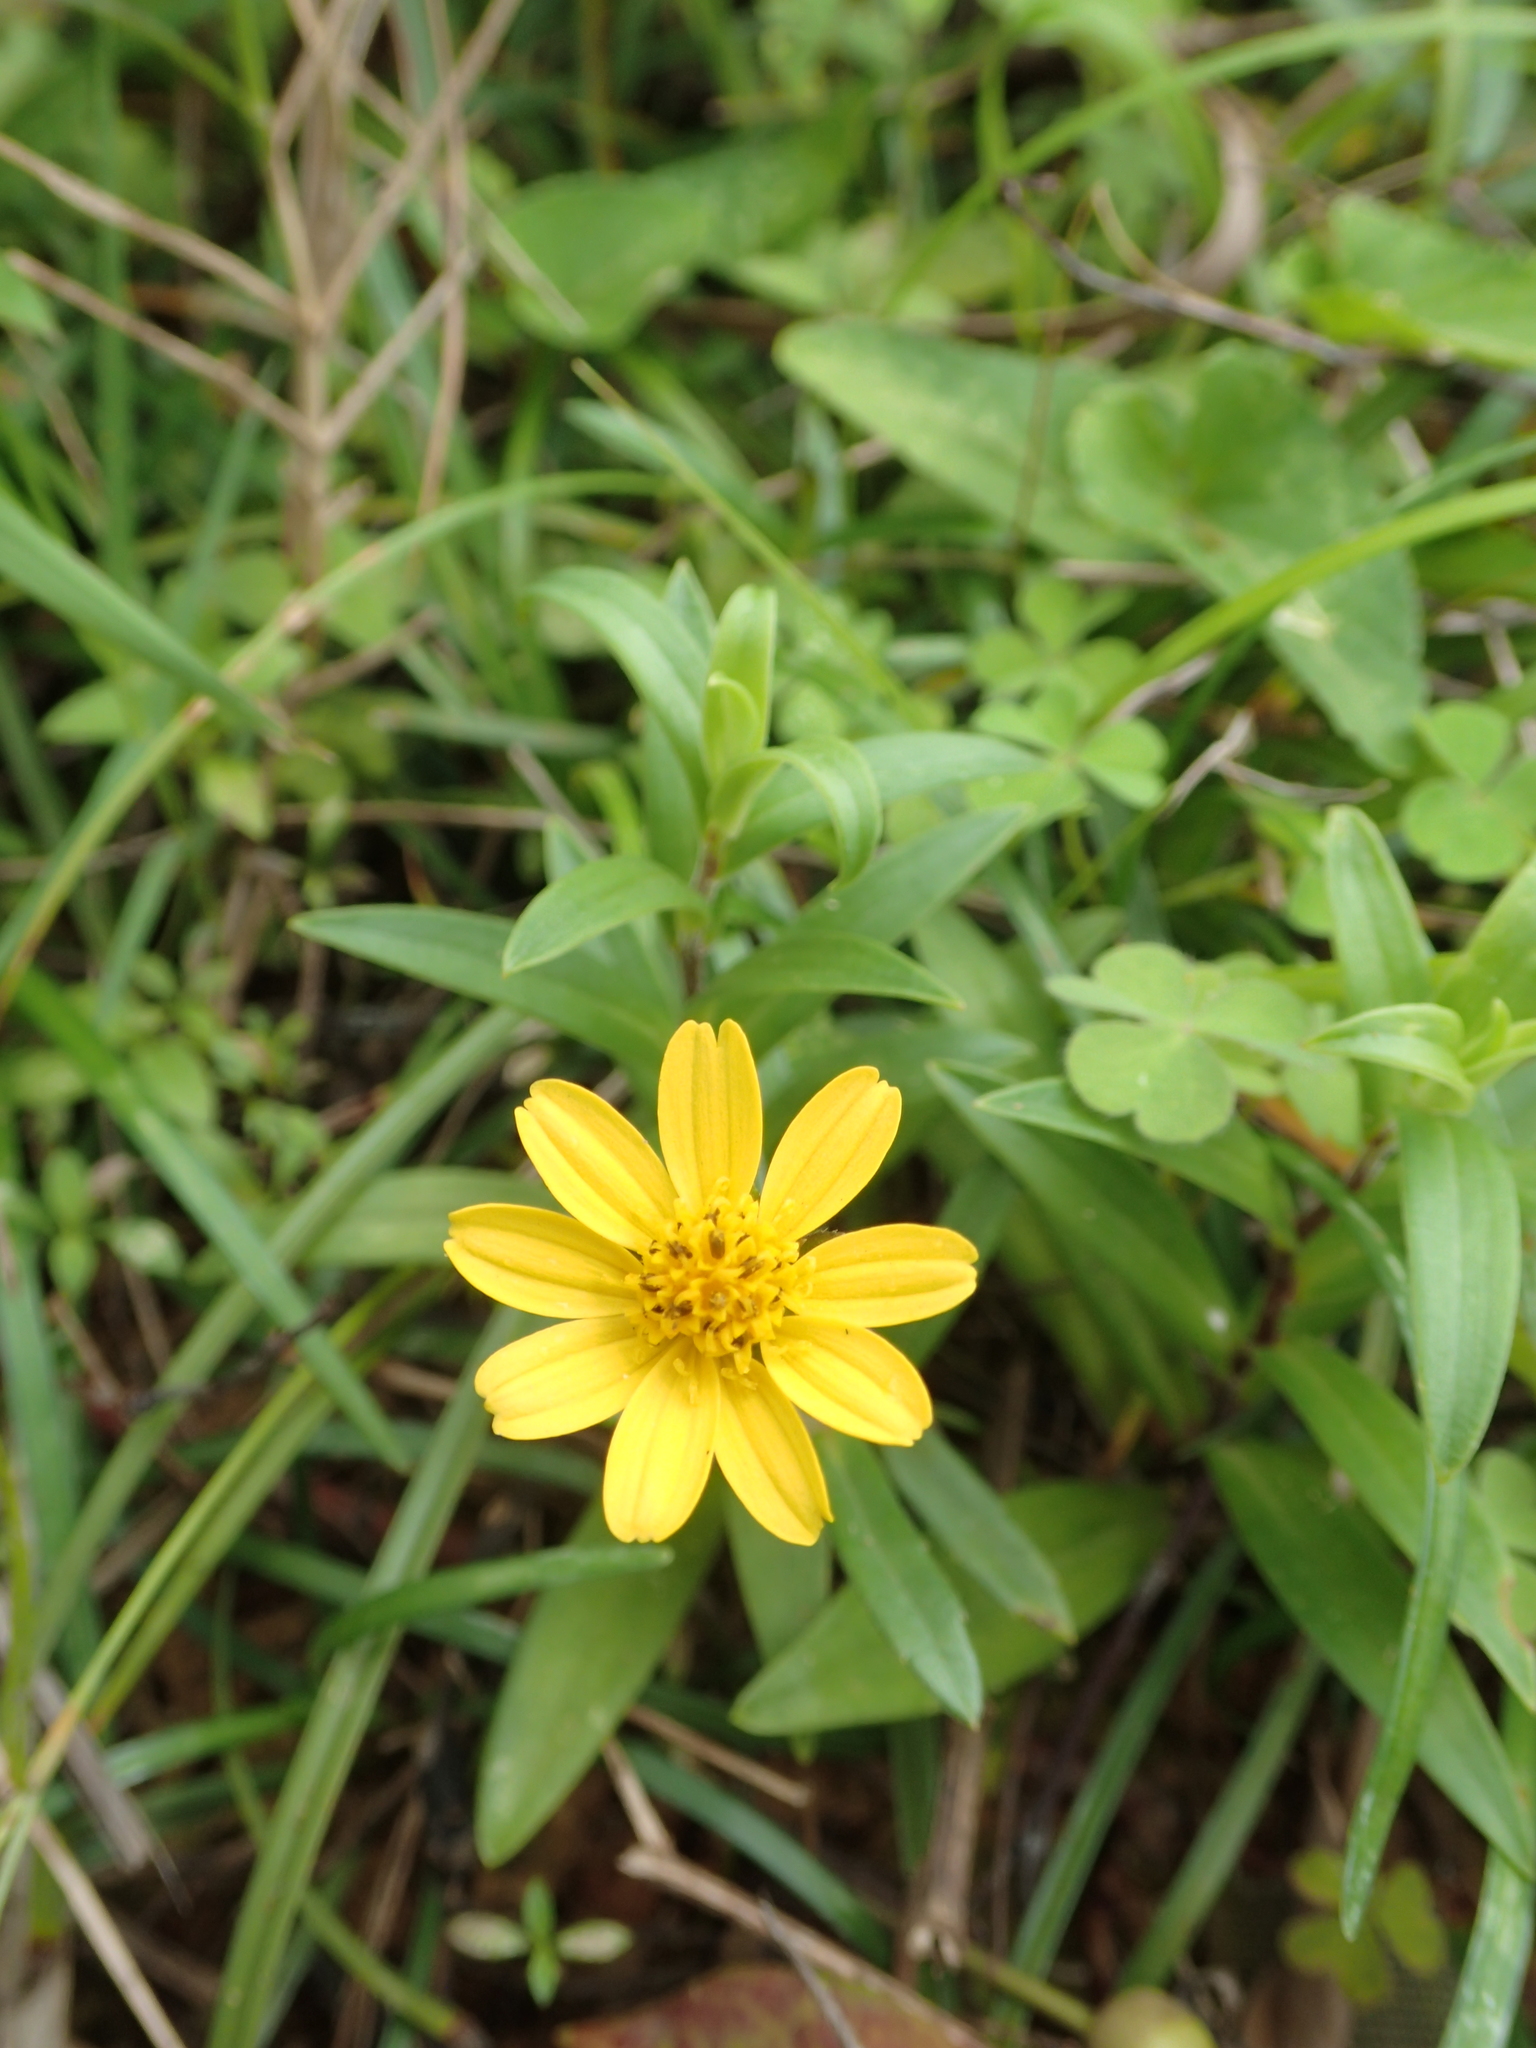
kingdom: Plantae
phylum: Tracheophyta
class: Magnoliopsida
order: Asterales
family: Asteraceae
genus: Sphagneticola
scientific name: Sphagneticola calendulacea
